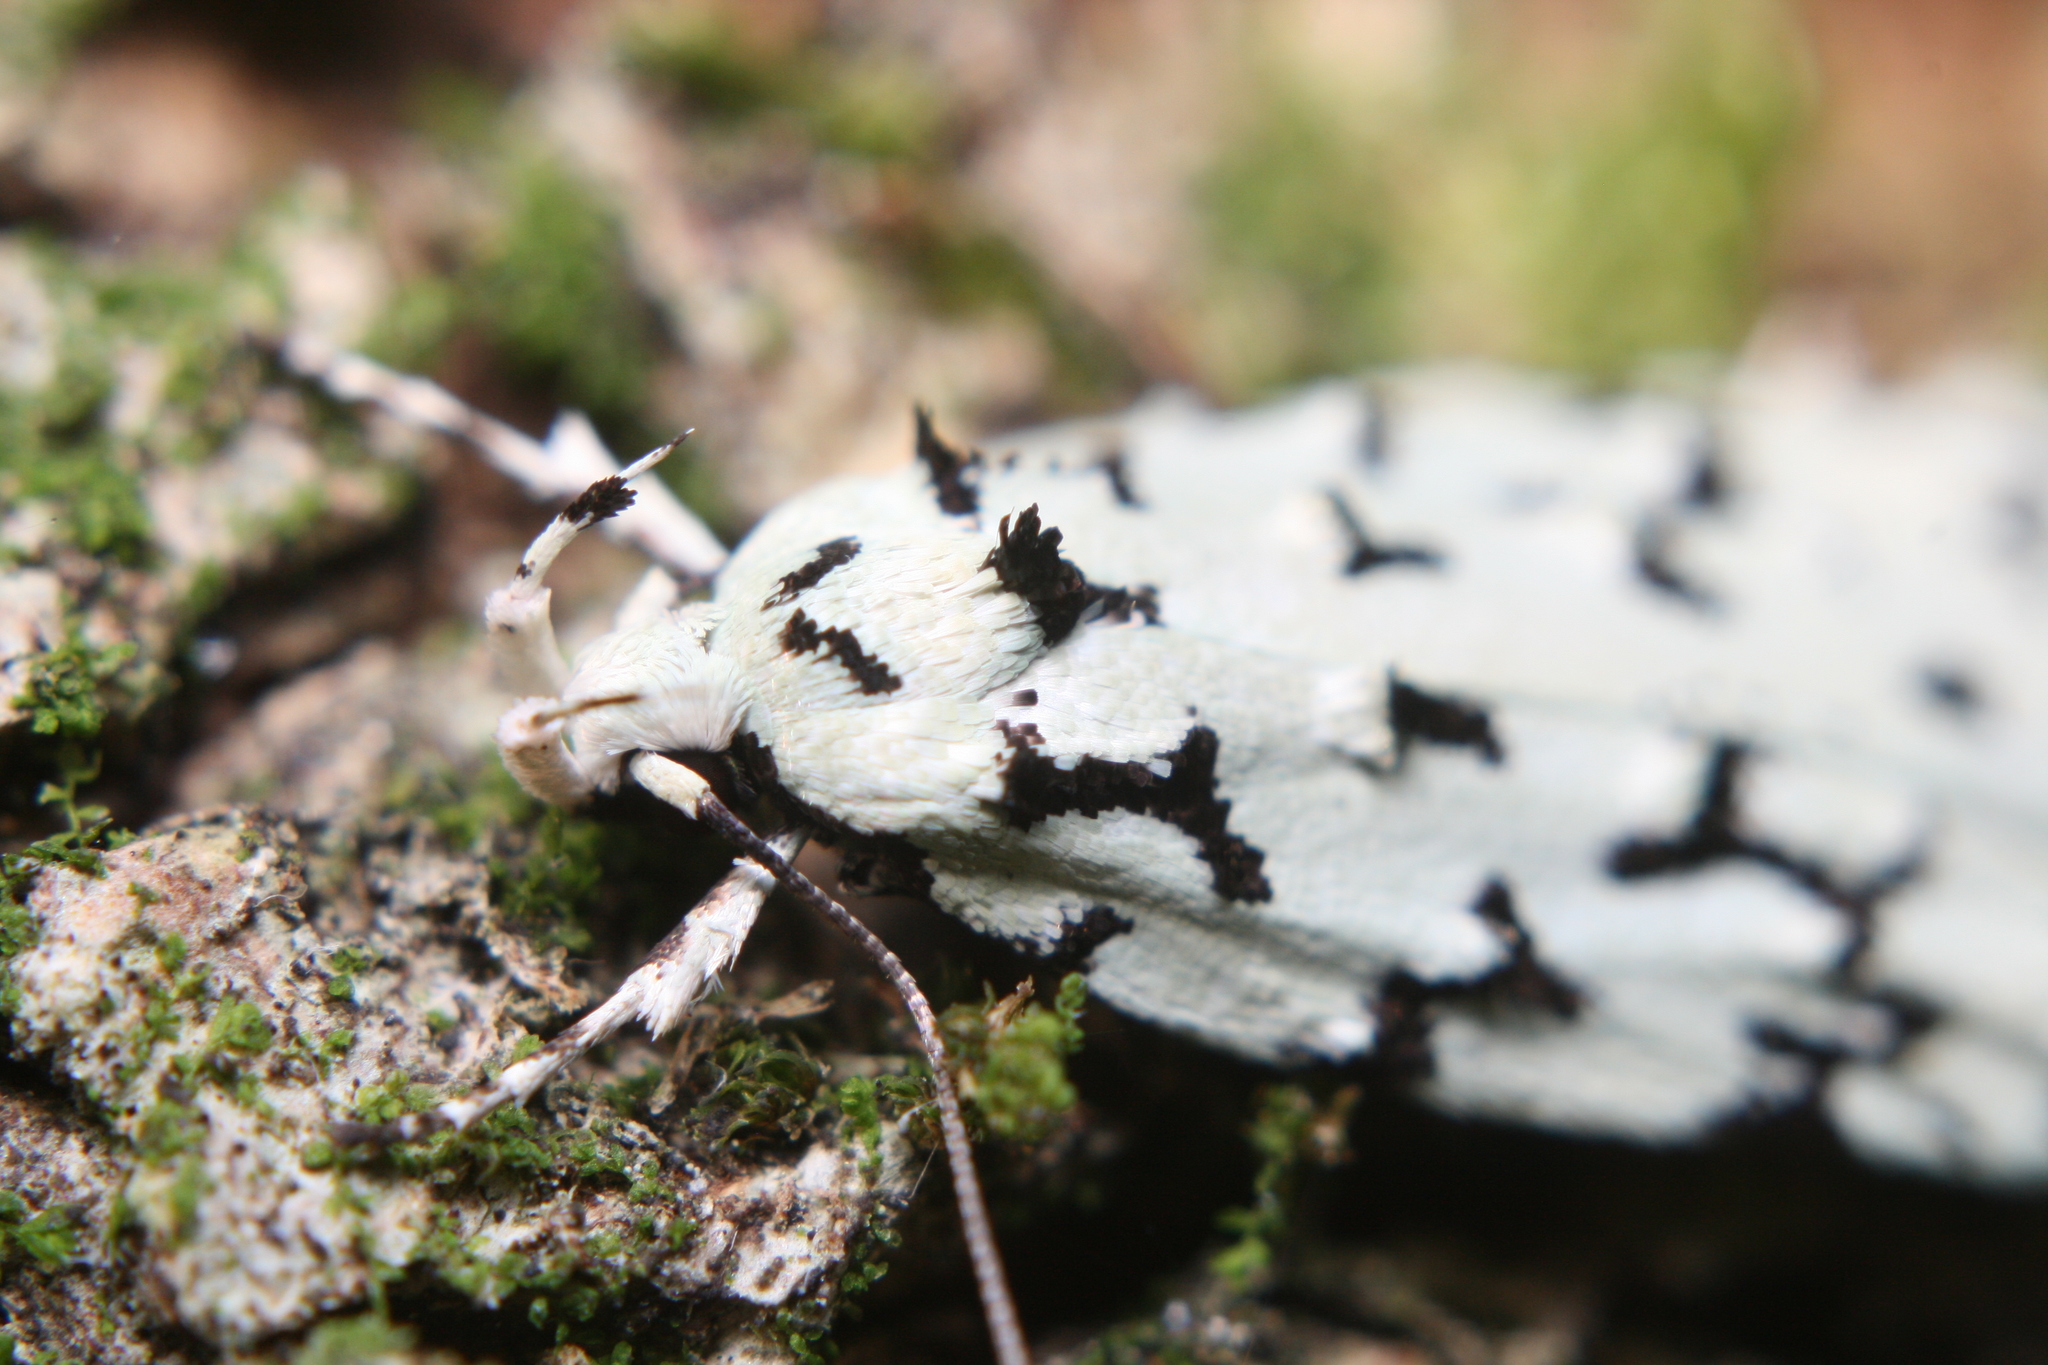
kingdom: Animalia
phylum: Arthropoda
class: Insecta
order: Lepidoptera
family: Oecophoridae
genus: Izatha
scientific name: Izatha huttoni
